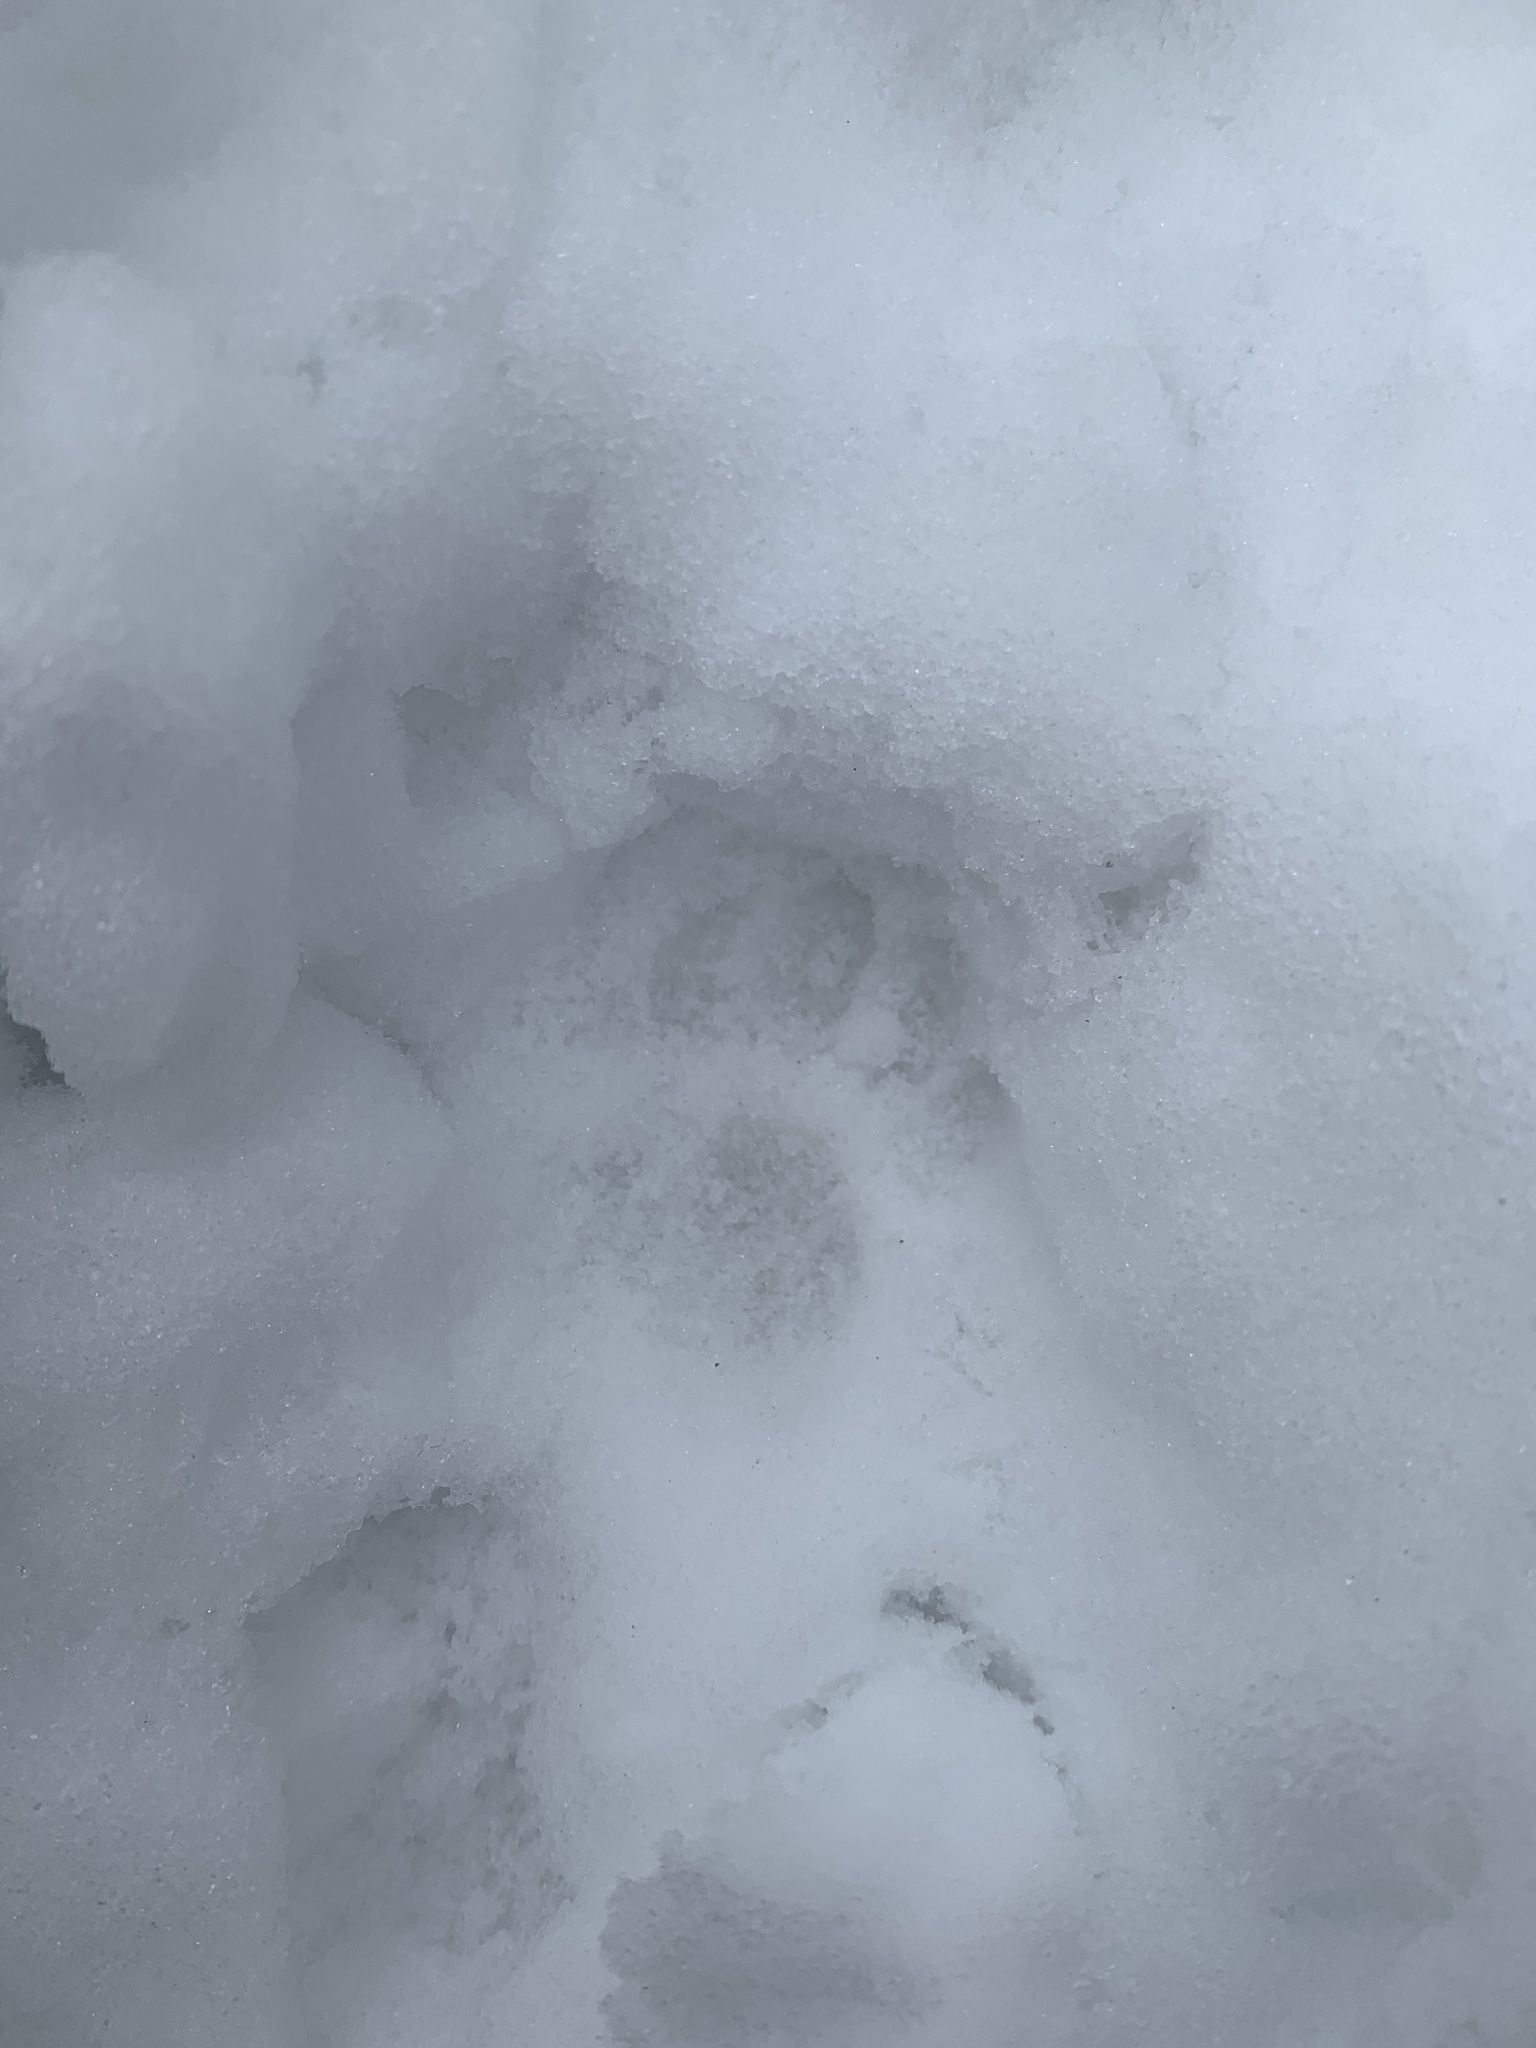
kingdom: Animalia
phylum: Chordata
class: Mammalia
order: Carnivora
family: Felidae
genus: Felis
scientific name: Felis catus
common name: Domestic cat
